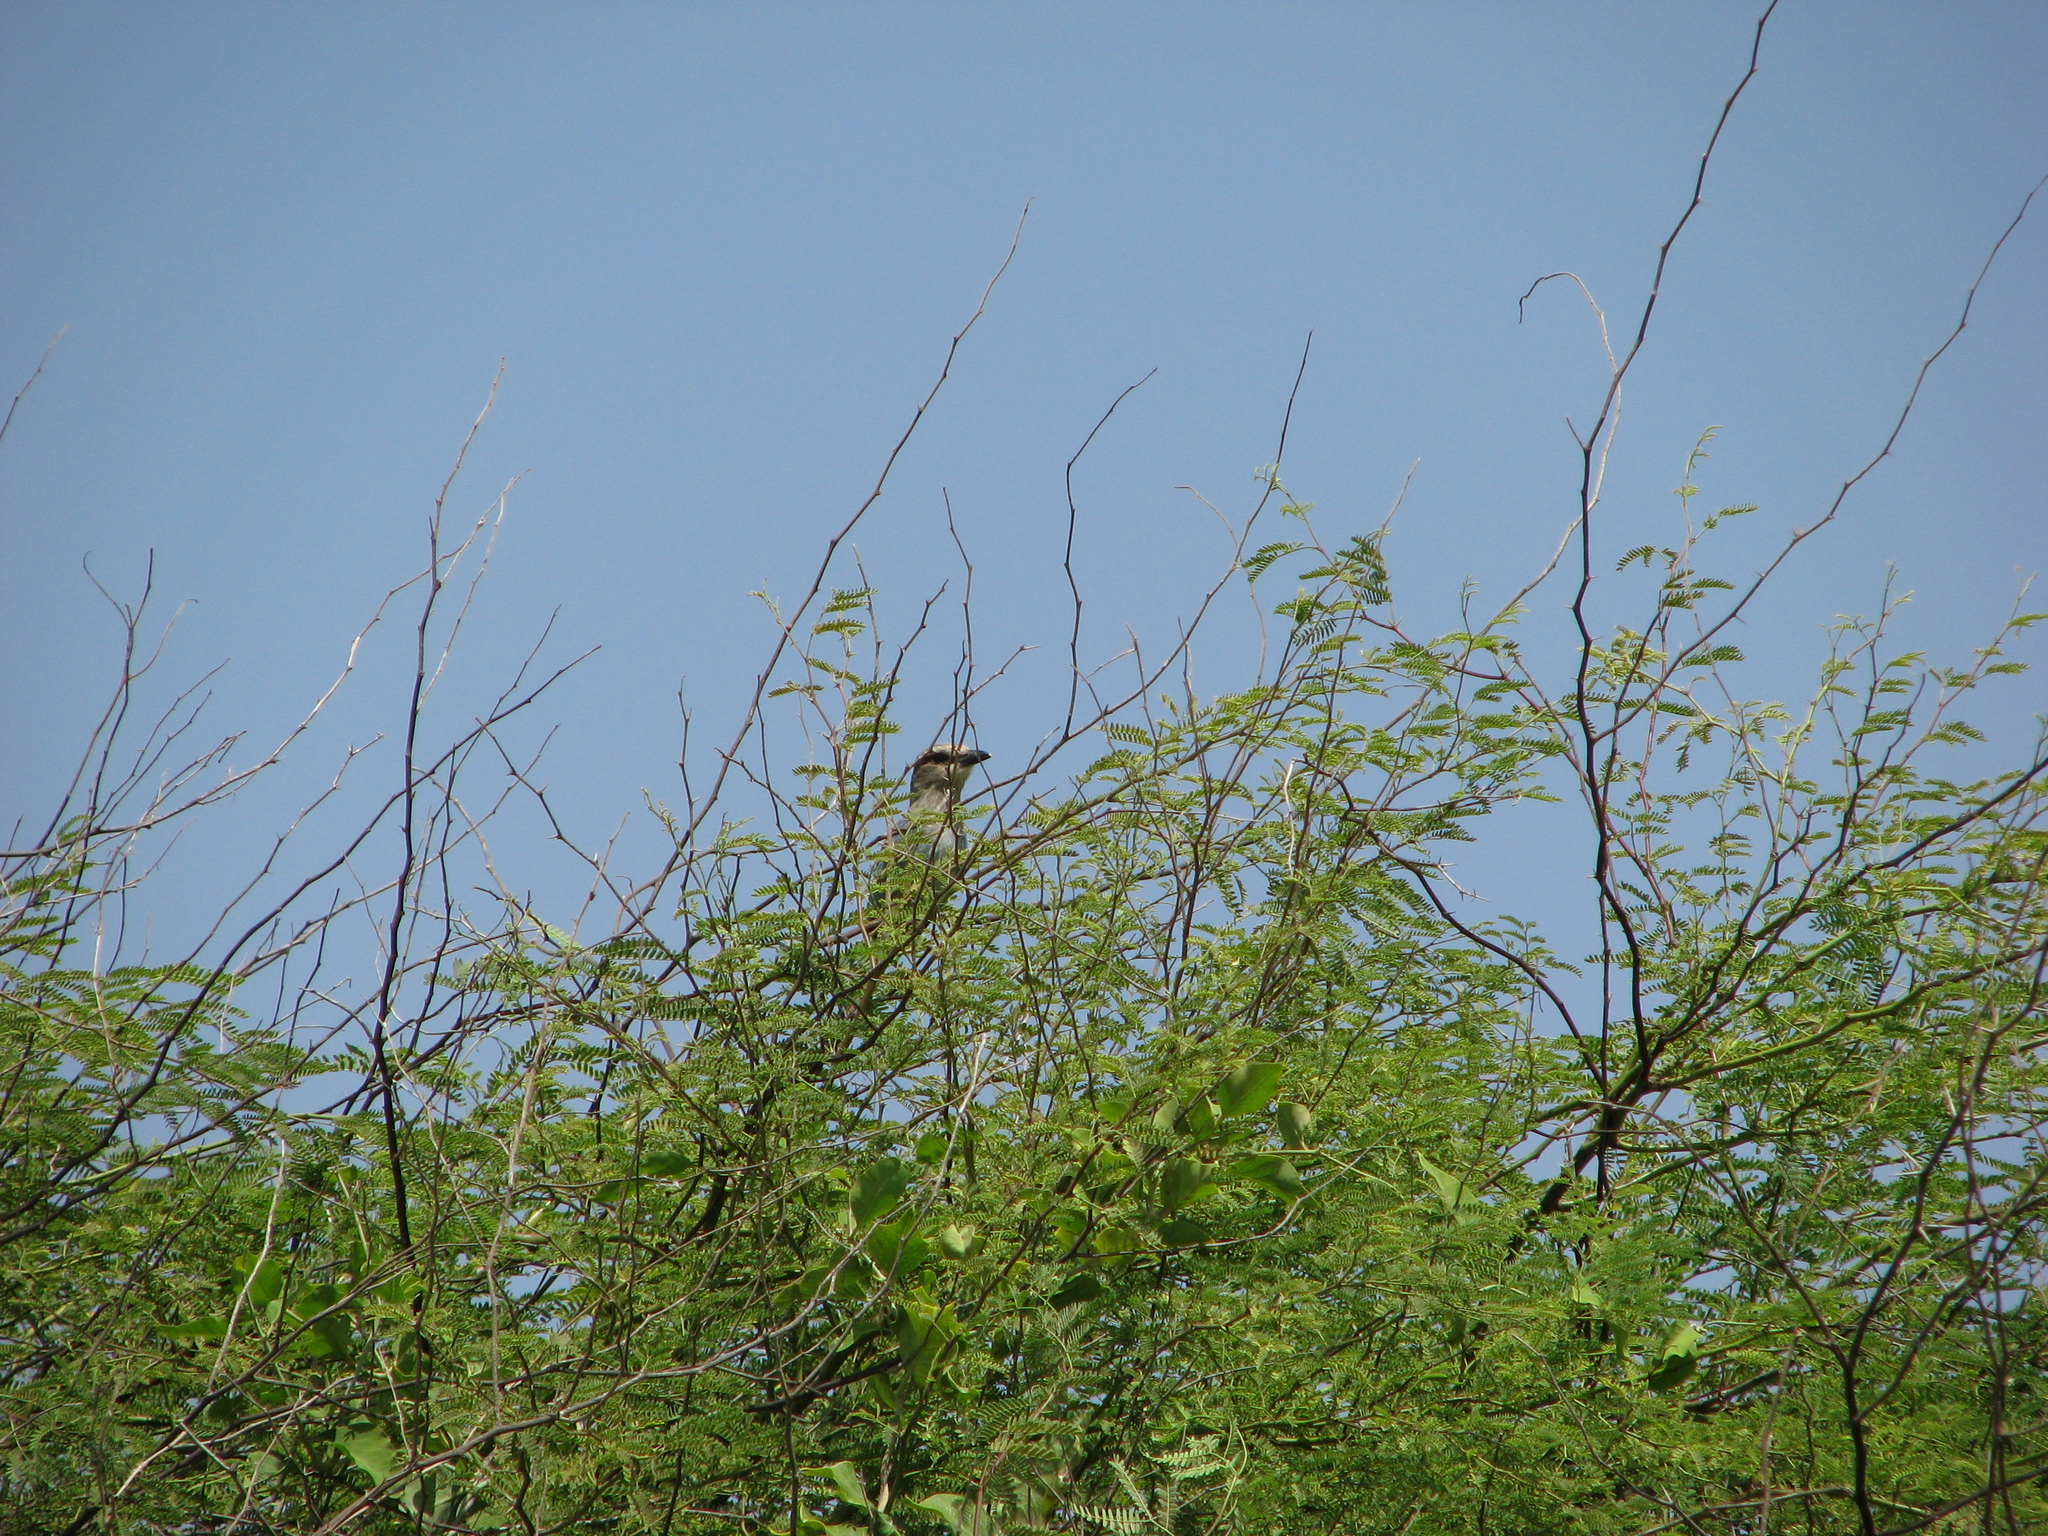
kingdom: Animalia
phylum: Chordata
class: Aves
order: Coraciiformes
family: Coraciidae
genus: Coracias
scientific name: Coracias abyssinicus
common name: Abyssinian roller
